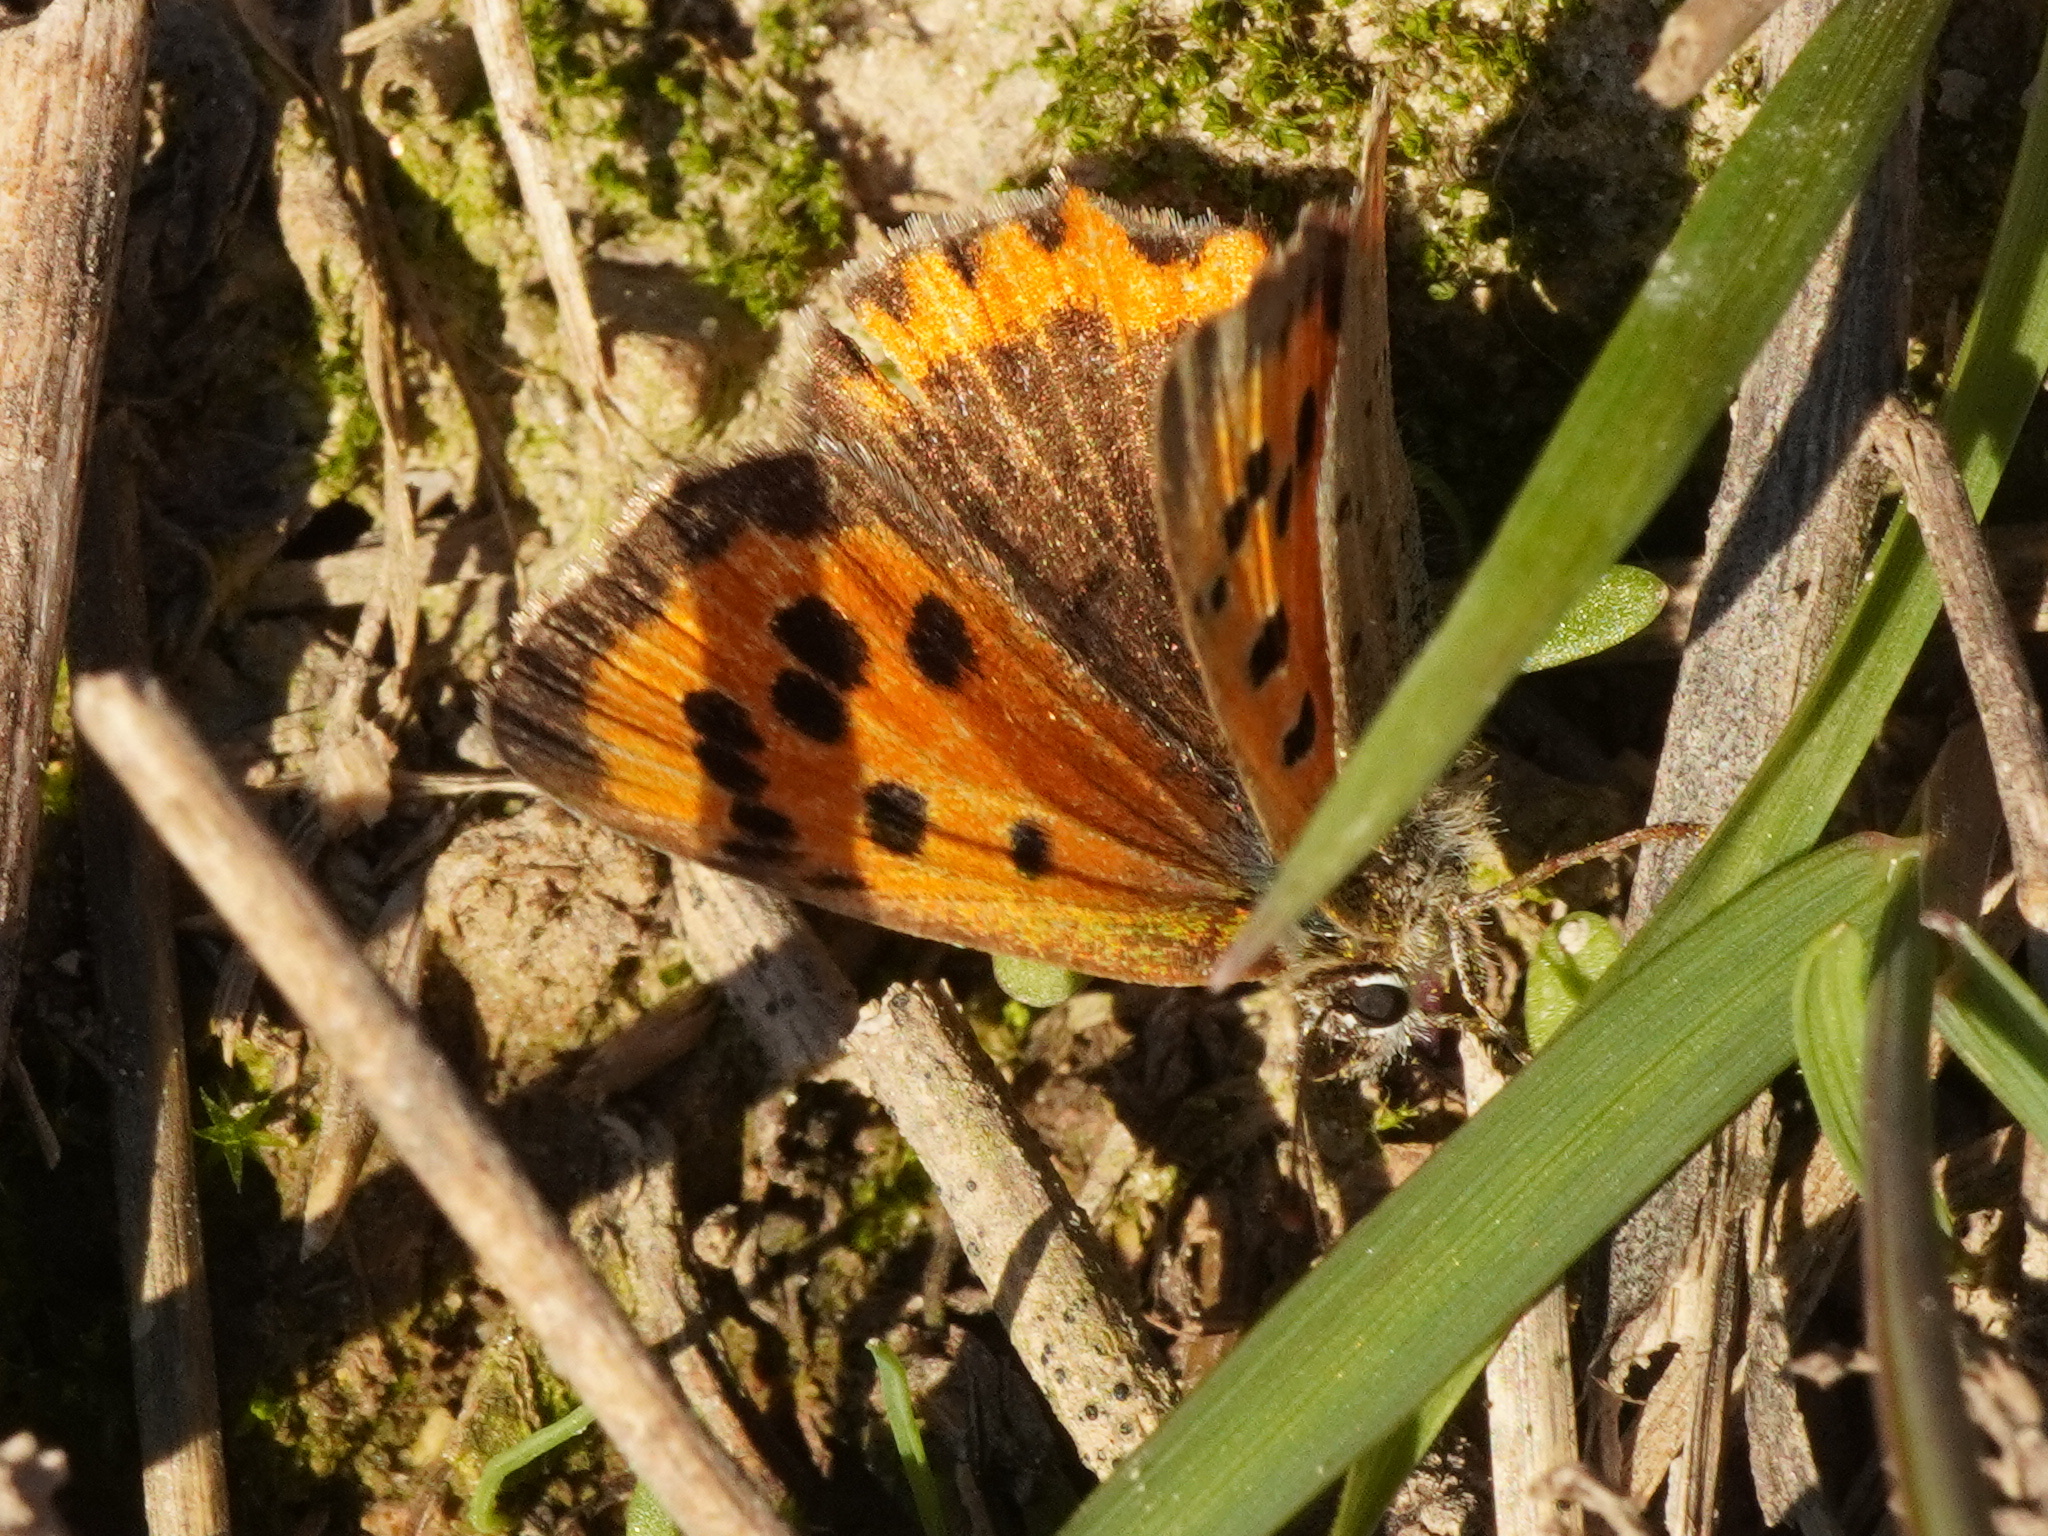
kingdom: Animalia
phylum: Arthropoda
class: Insecta
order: Lepidoptera
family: Lycaenidae
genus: Lycaena
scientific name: Lycaena phlaeas
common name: Small copper
